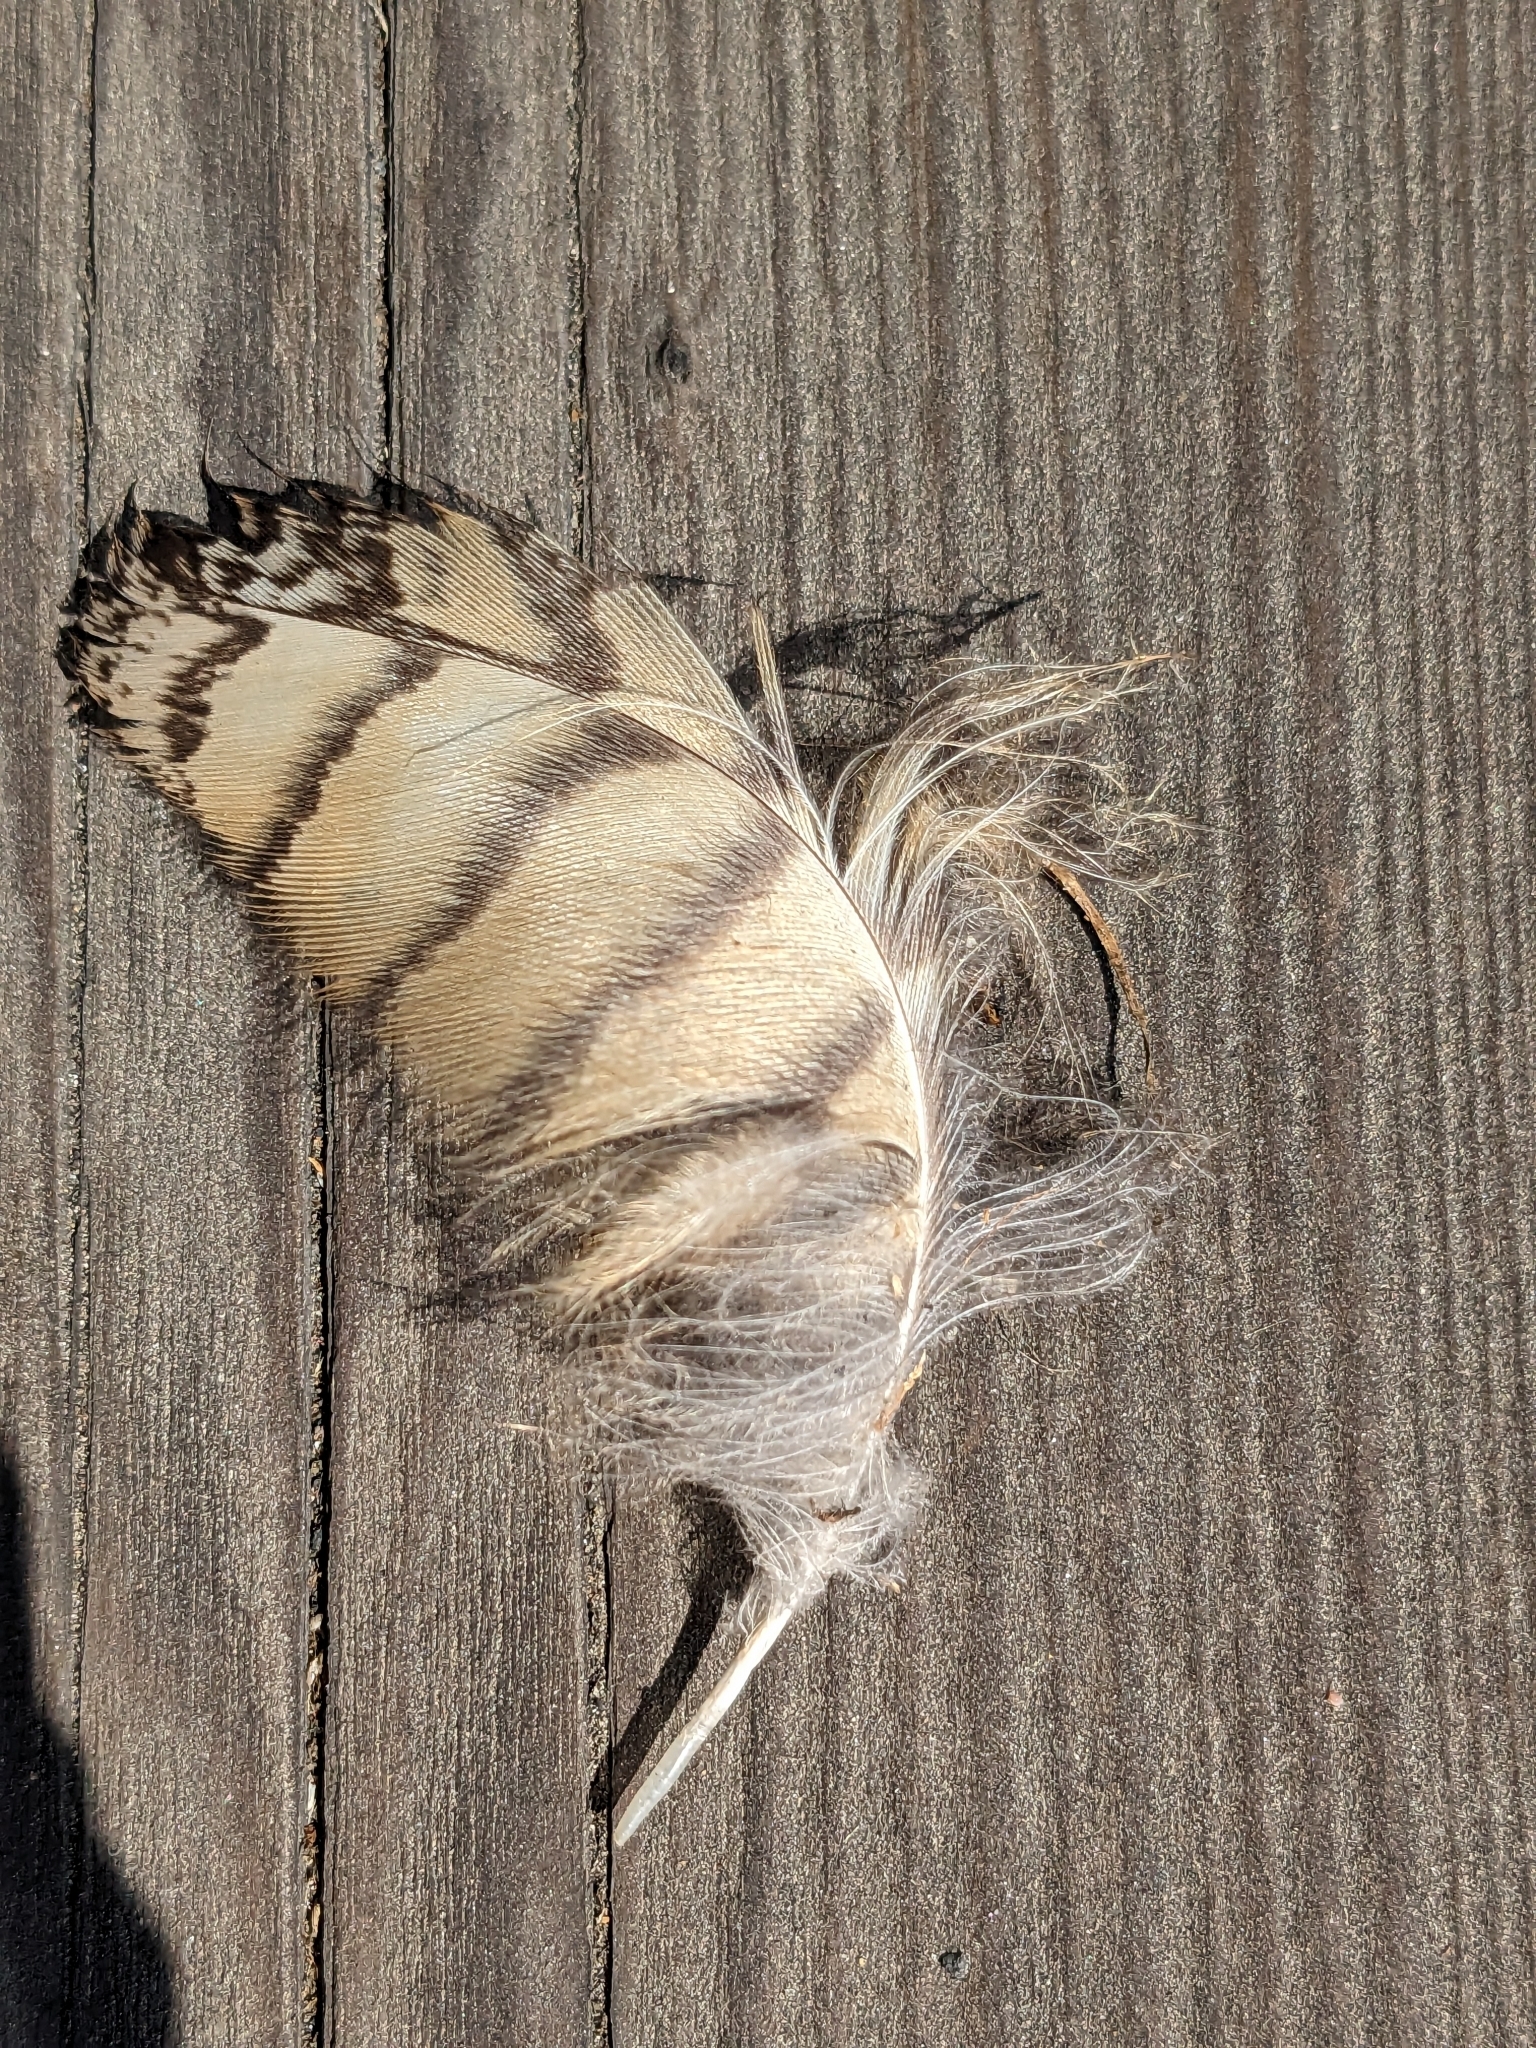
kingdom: Animalia
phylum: Chordata
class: Aves
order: Strigiformes
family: Strigidae
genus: Bubo
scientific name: Bubo virginianus
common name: Great horned owl
